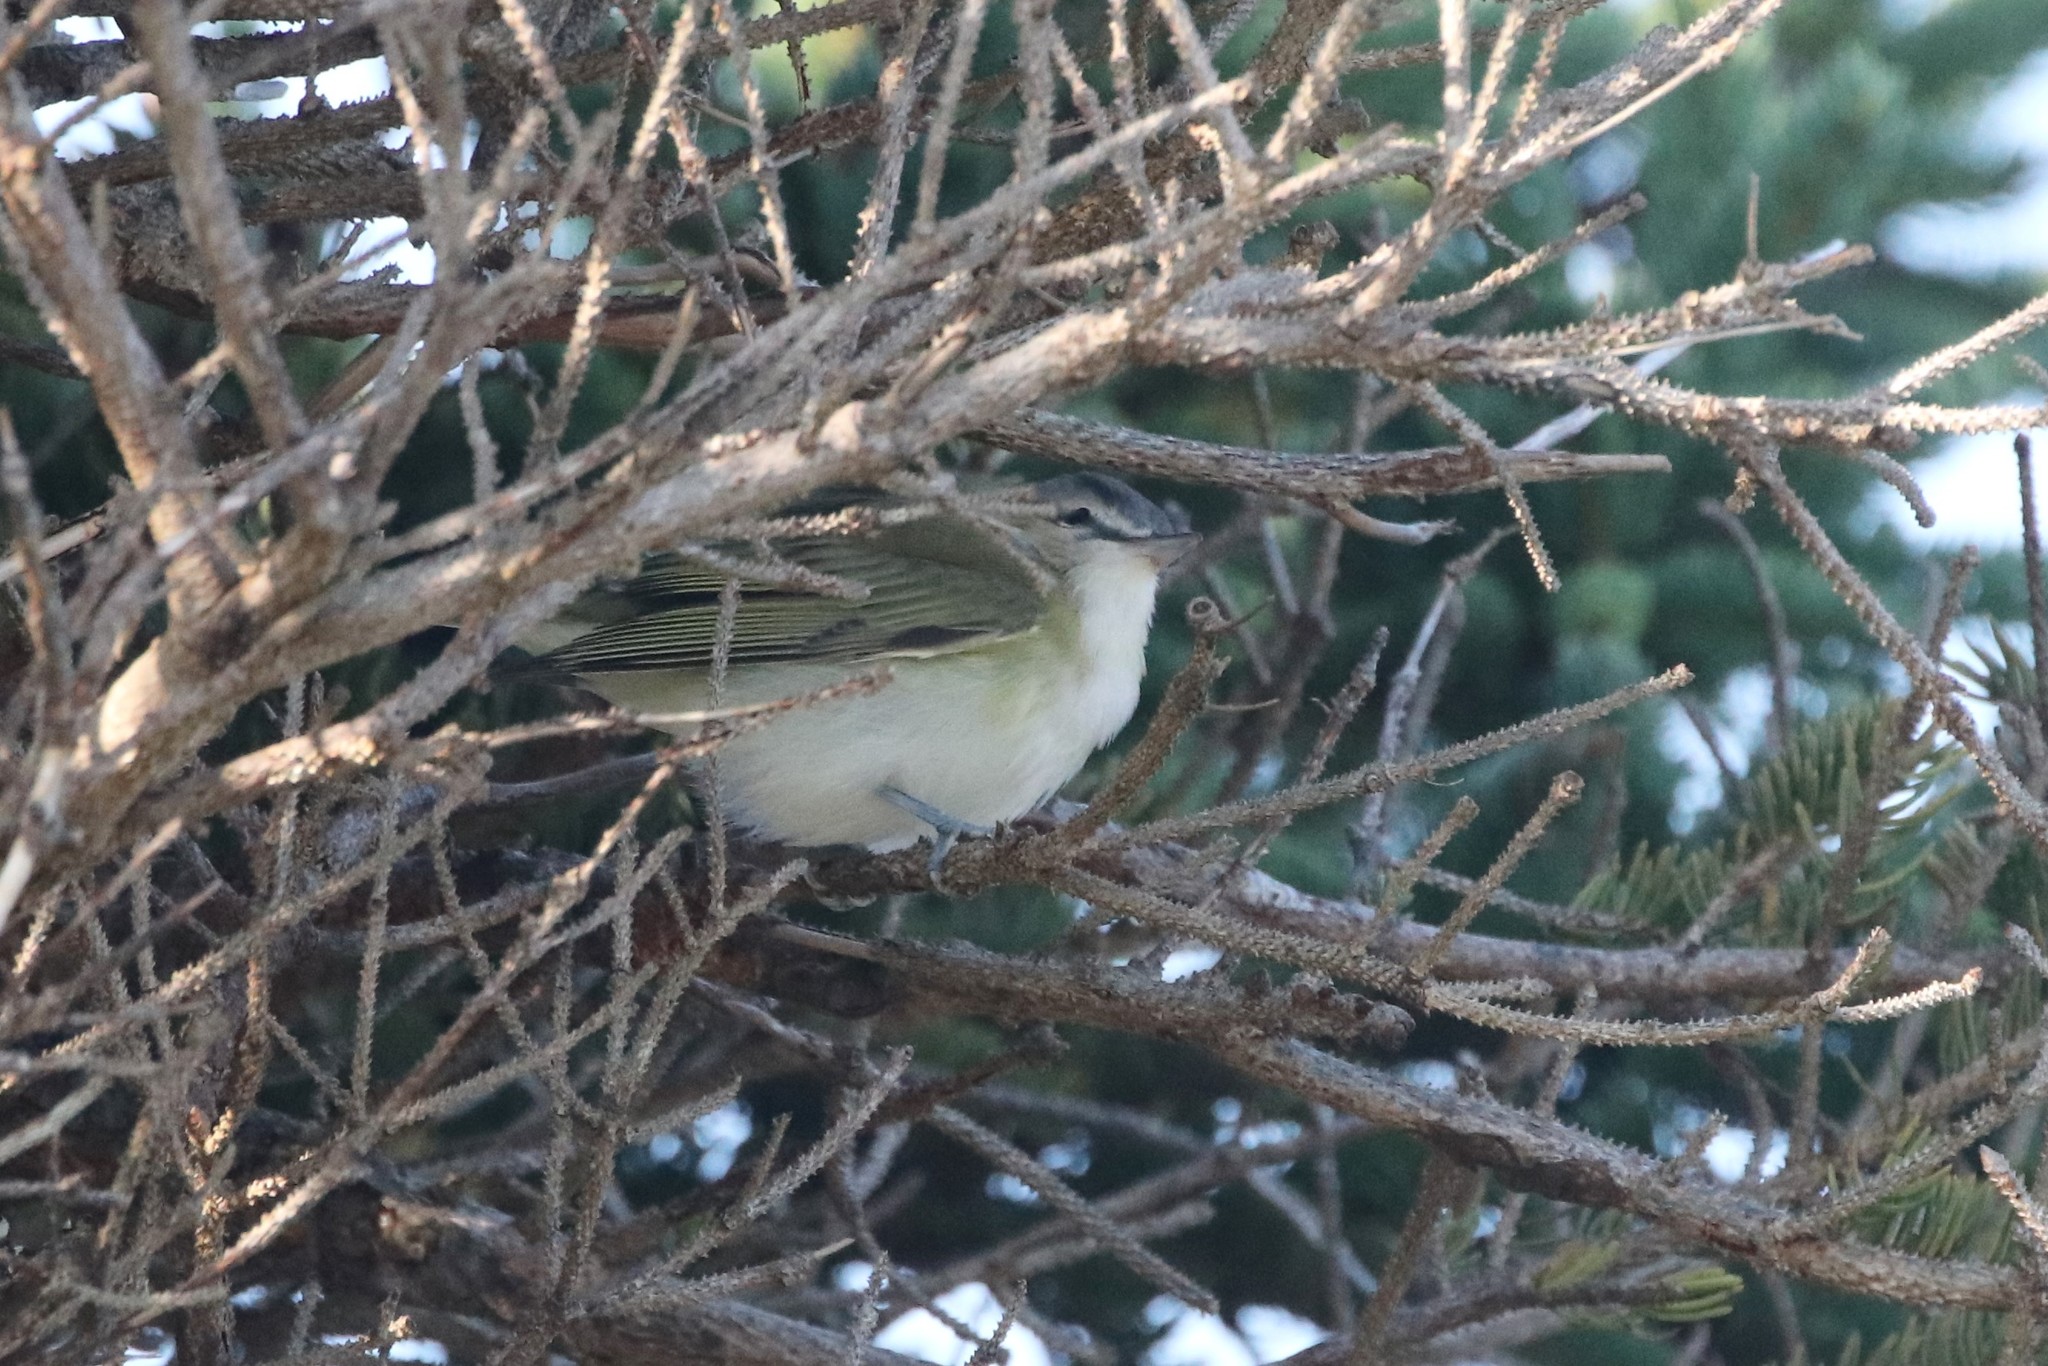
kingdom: Animalia
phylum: Chordata
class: Aves
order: Passeriformes
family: Vireonidae
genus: Vireo
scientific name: Vireo olivaceus
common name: Red-eyed vireo
